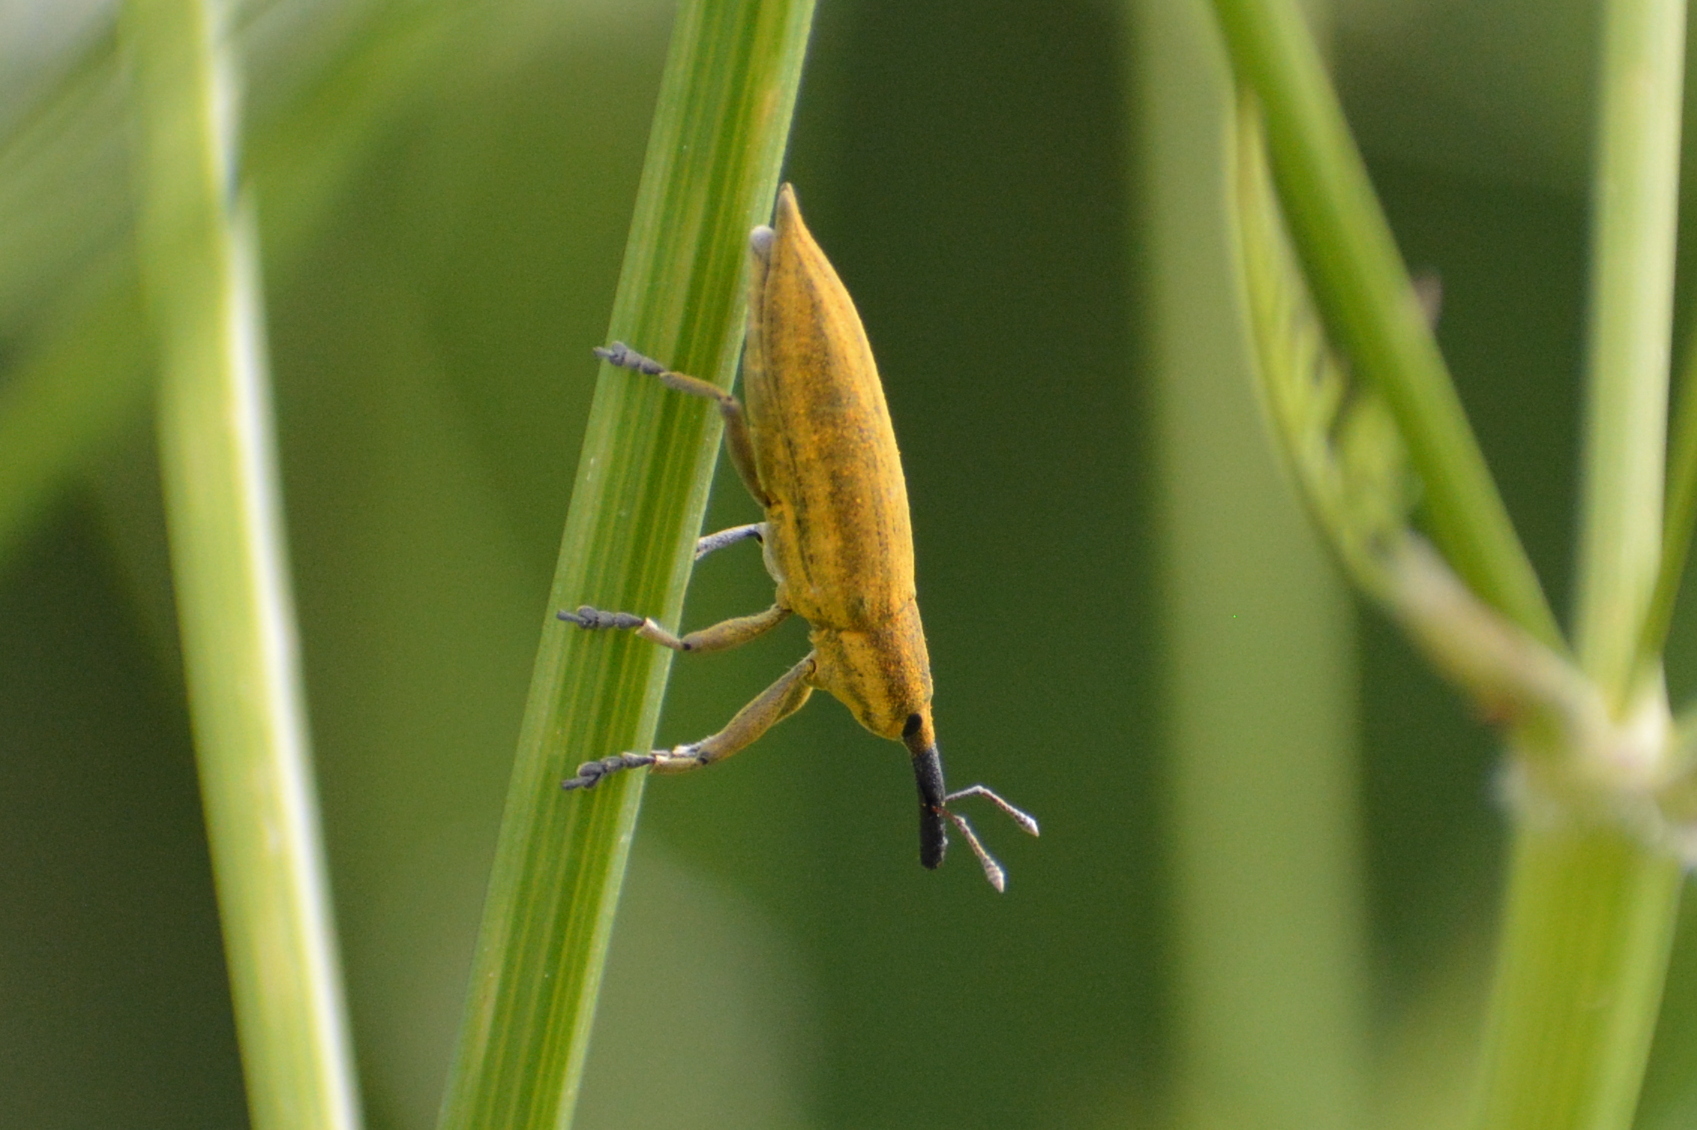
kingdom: Animalia
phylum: Arthropoda
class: Insecta
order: Coleoptera
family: Curculionidae
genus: Lixus
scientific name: Lixus iridis
